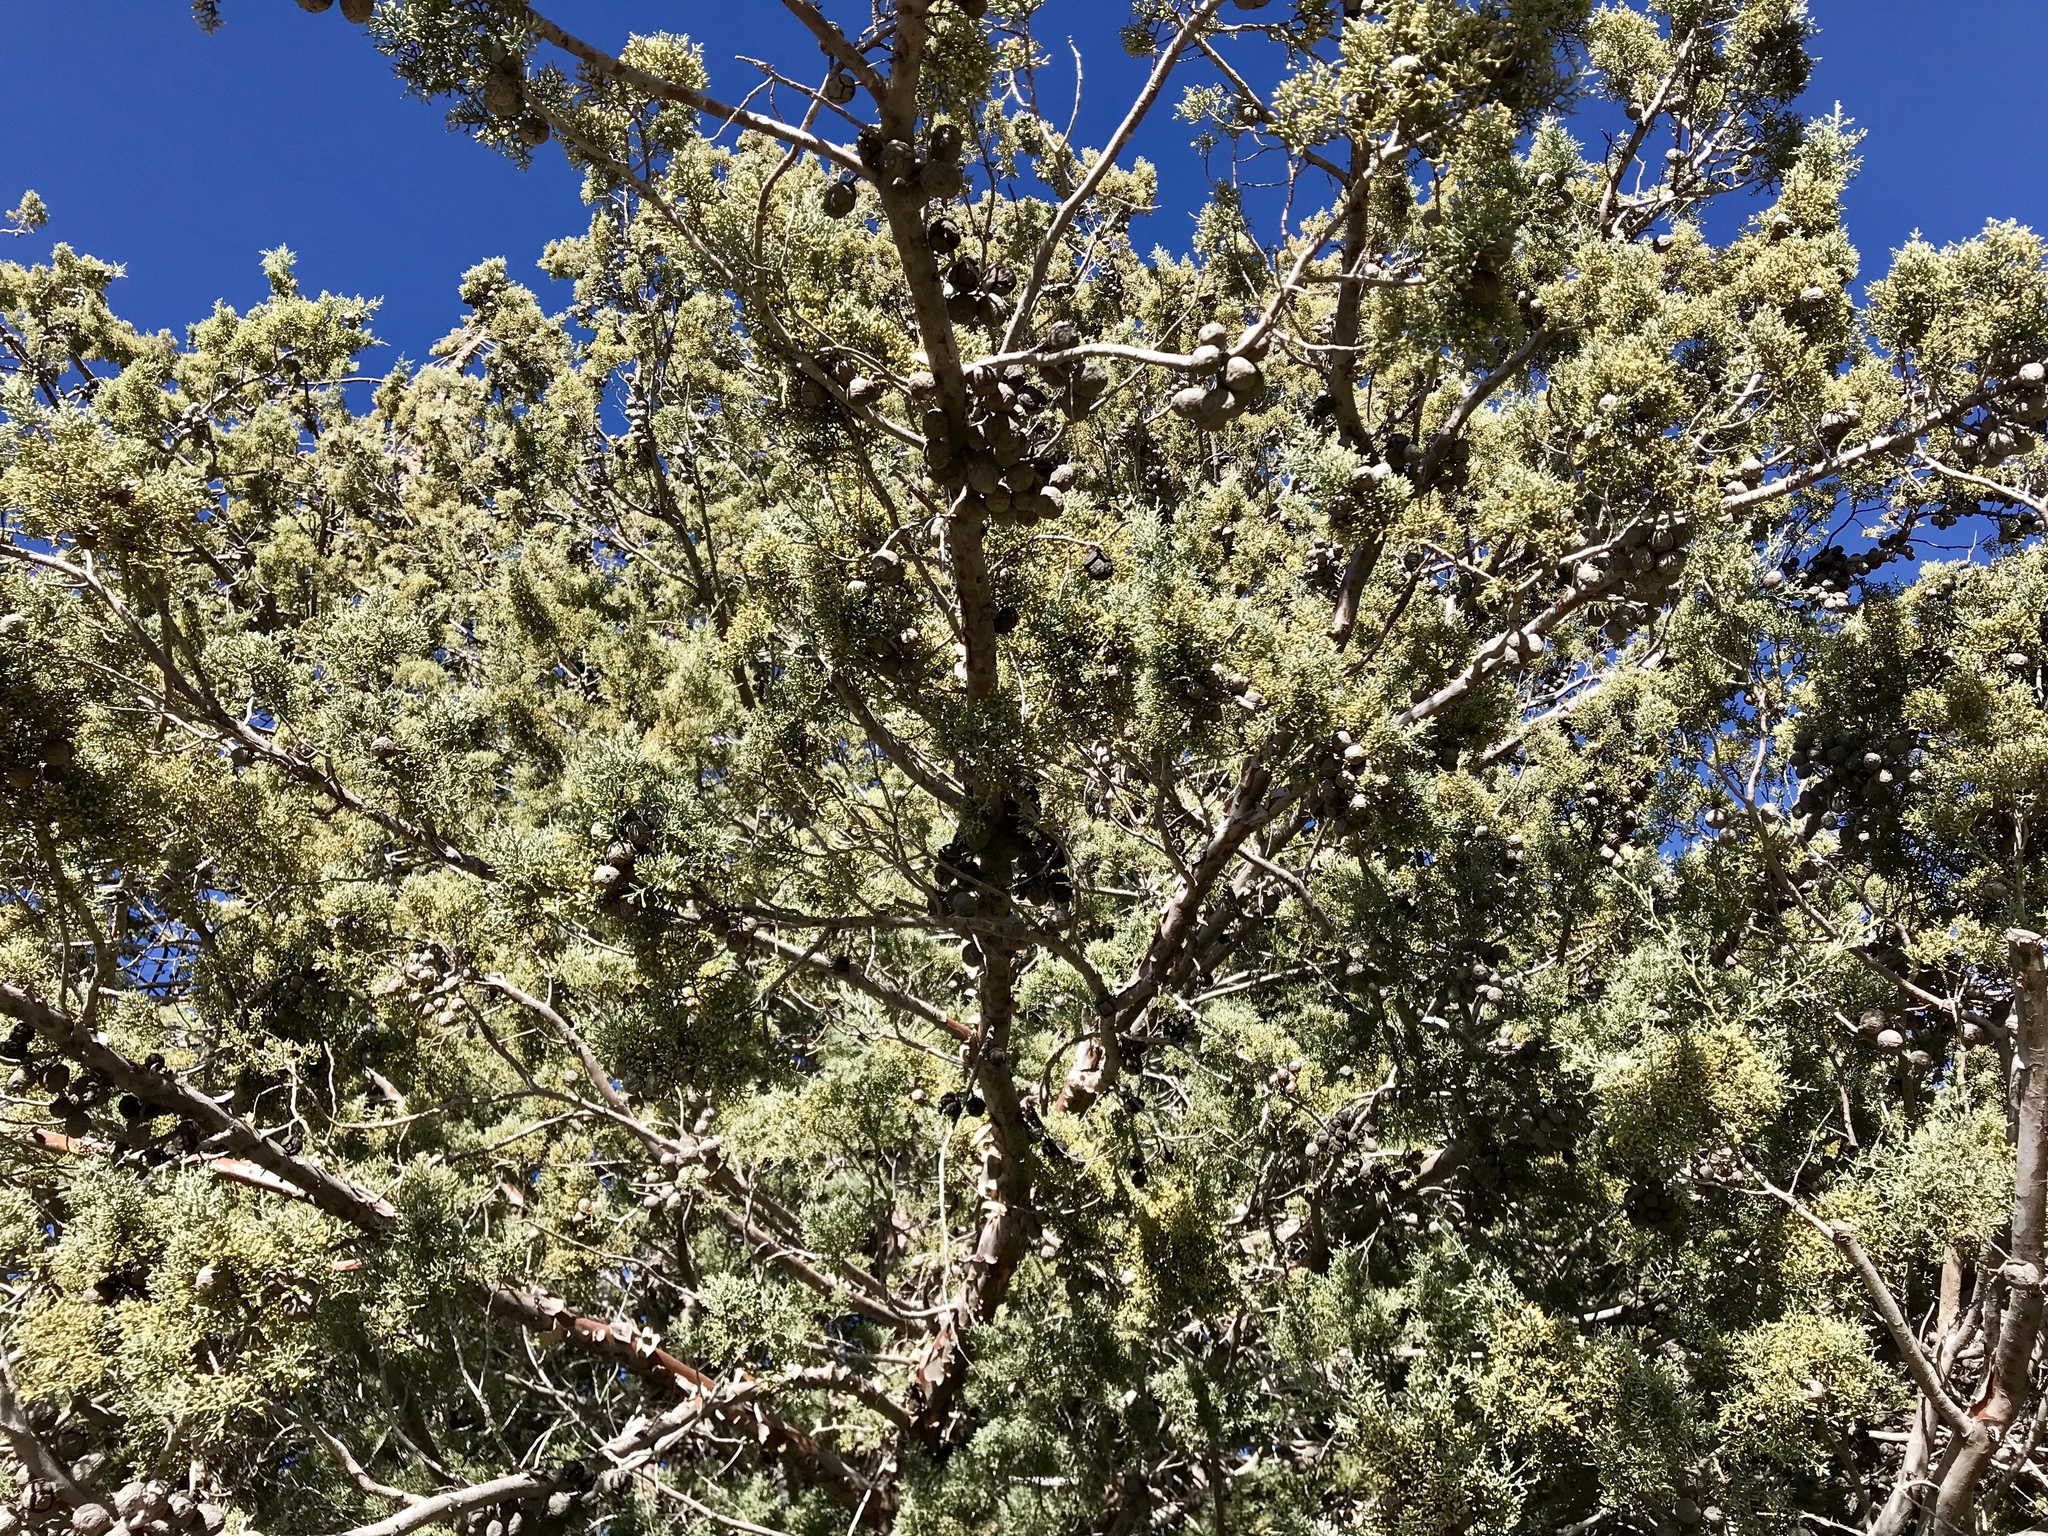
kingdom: Plantae
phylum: Tracheophyta
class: Pinopsida
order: Pinales
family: Cupressaceae
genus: Cupressus
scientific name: Cupressus arizonica
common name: Arizona cypress
